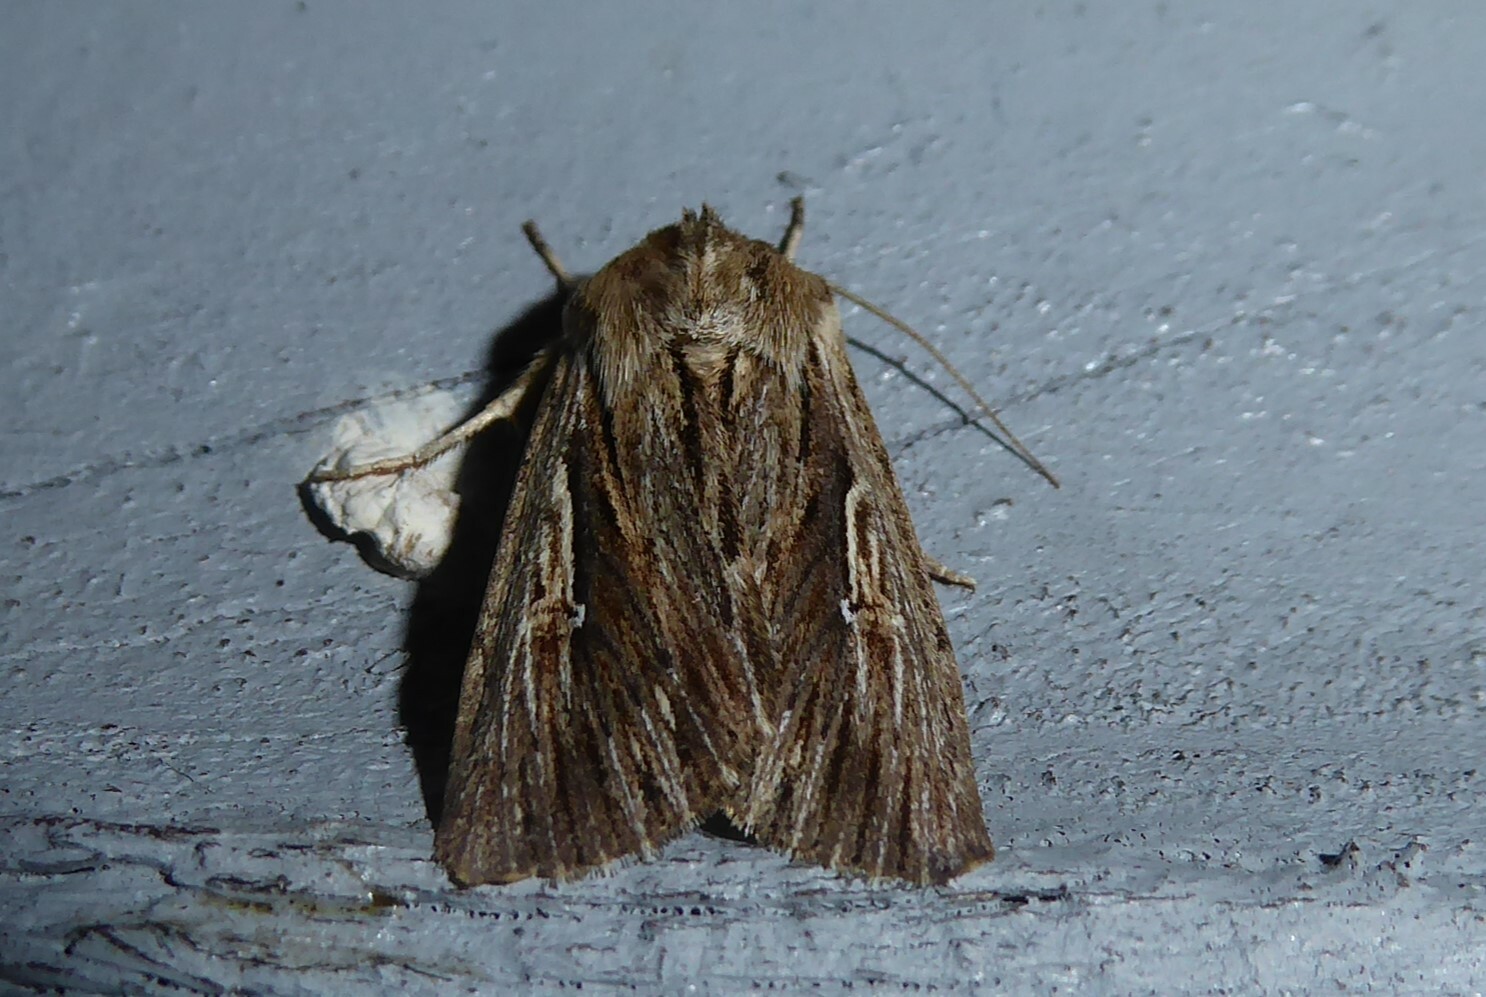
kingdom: Animalia
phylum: Arthropoda
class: Insecta
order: Lepidoptera
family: Noctuidae
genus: Persectania
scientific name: Persectania aversa
